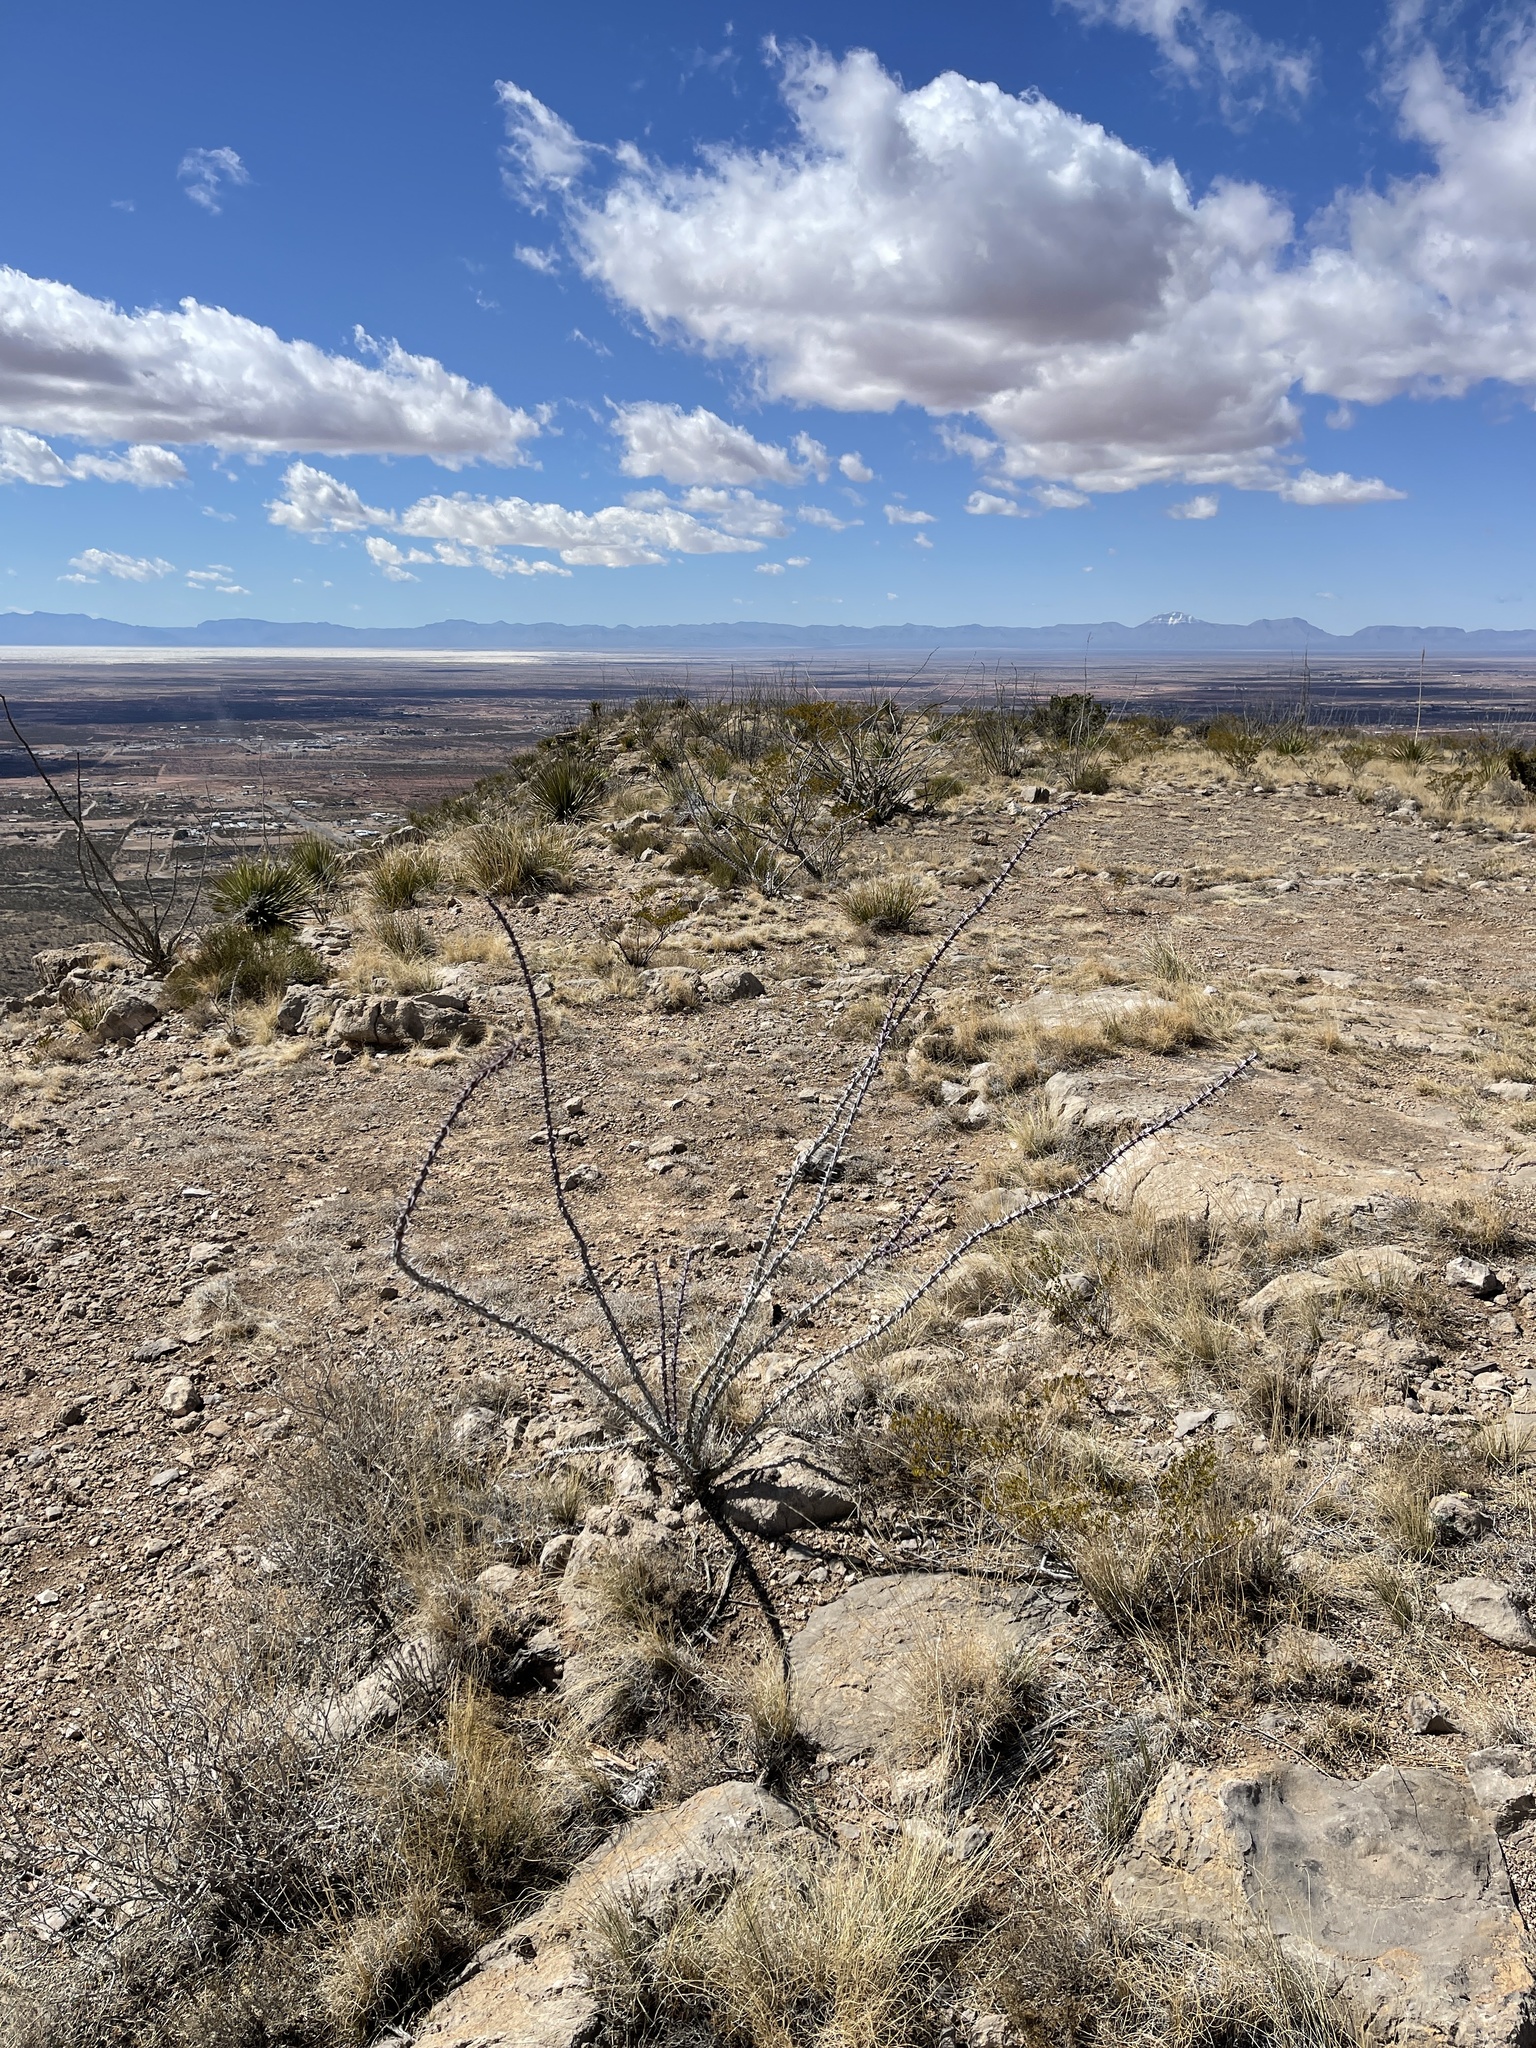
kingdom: Plantae
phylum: Tracheophyta
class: Magnoliopsida
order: Ericales
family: Fouquieriaceae
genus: Fouquieria
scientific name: Fouquieria splendens
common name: Vine-cactus
